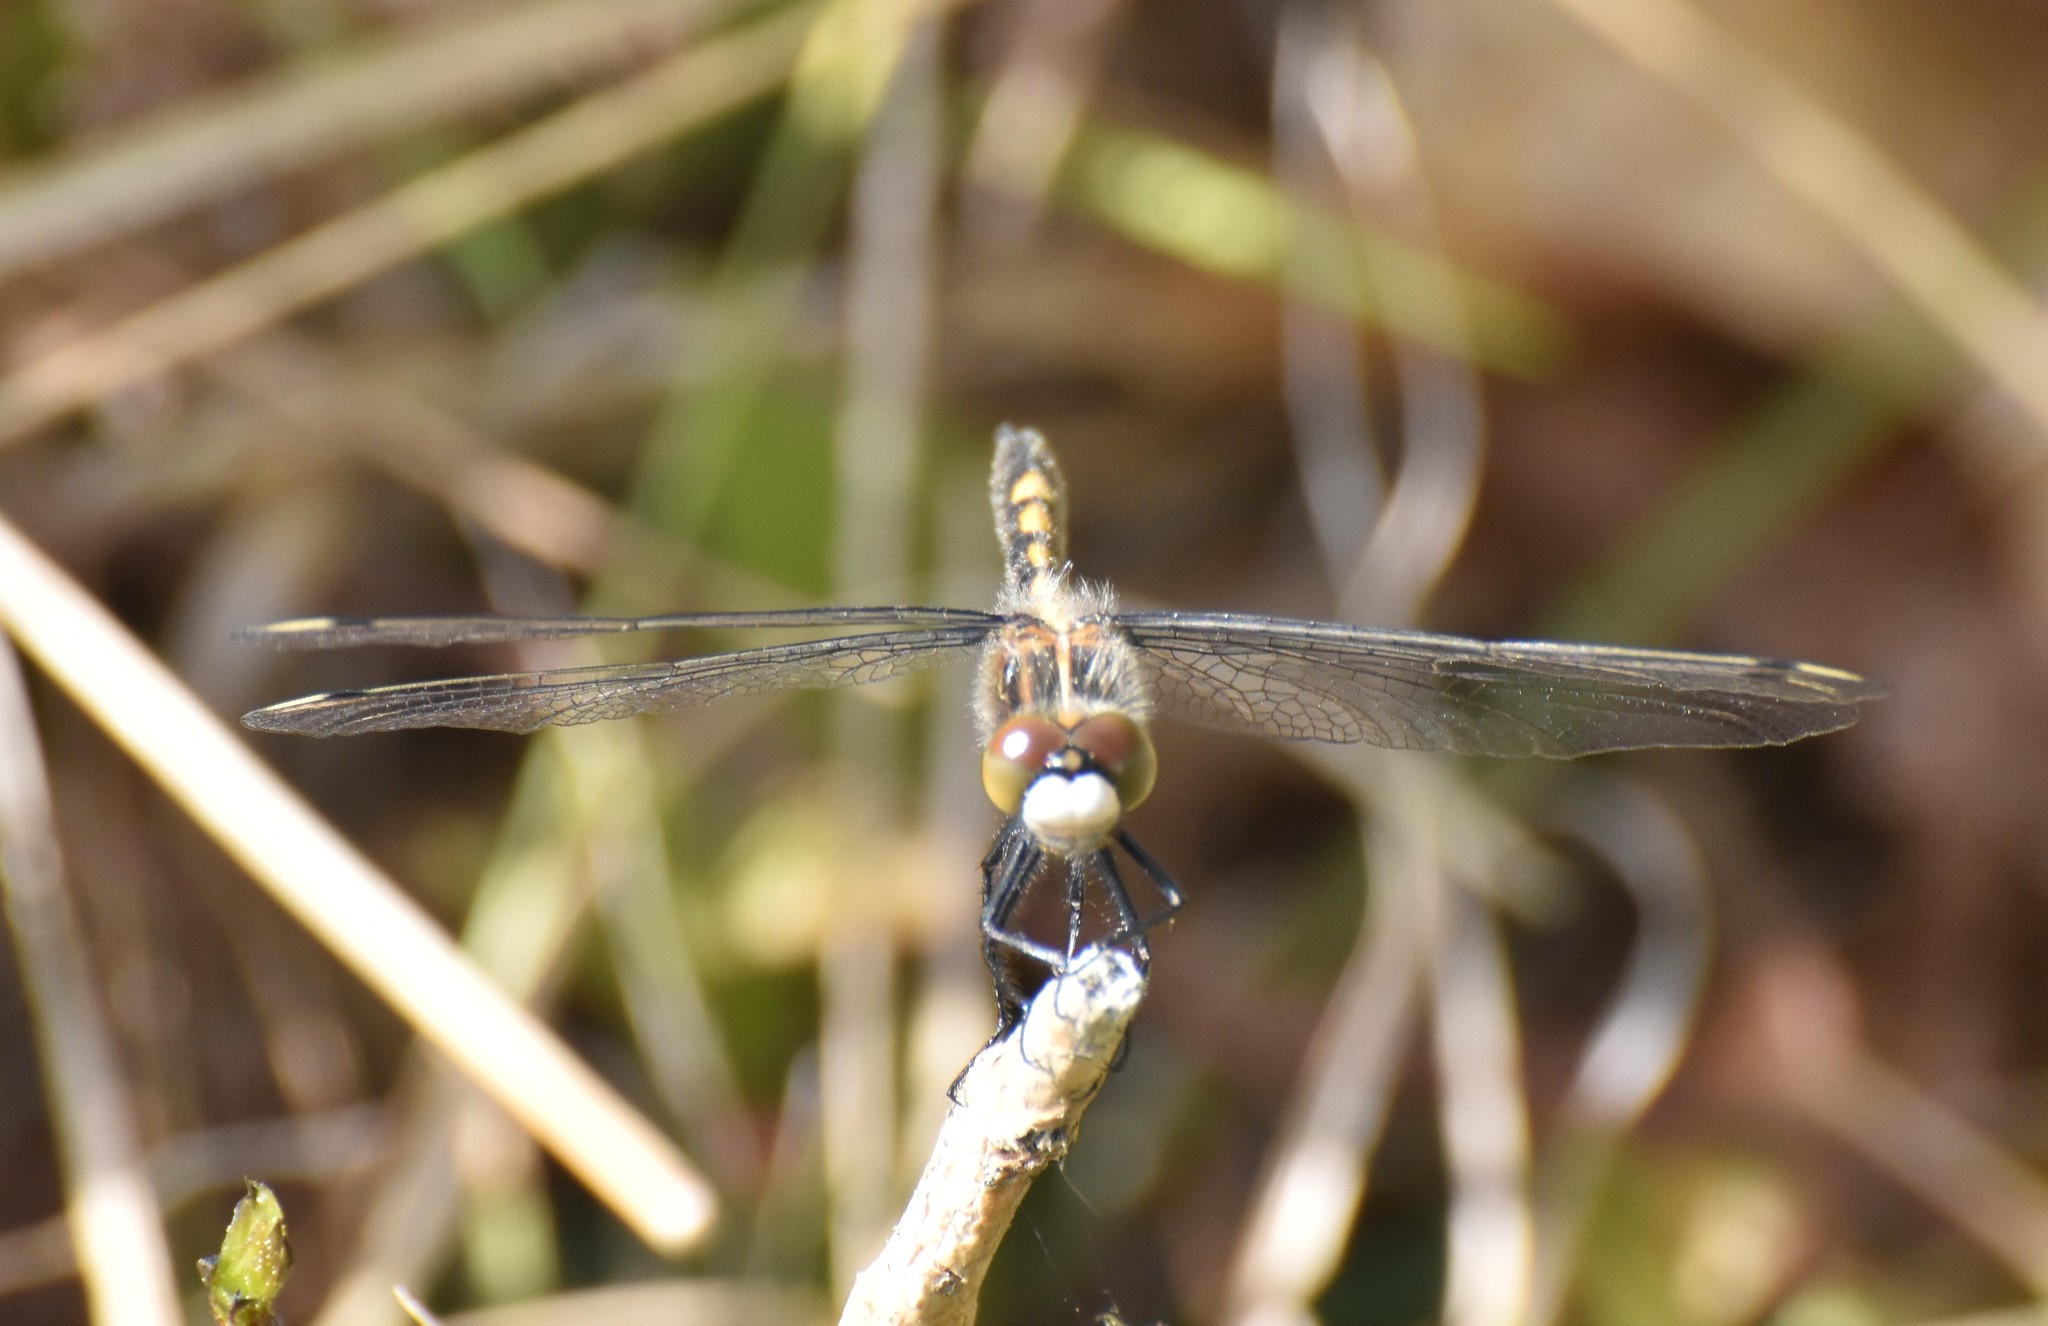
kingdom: Animalia
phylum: Arthropoda
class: Insecta
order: Odonata
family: Libellulidae
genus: Leucorrhinia
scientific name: Leucorrhinia intacta
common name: Dot-tailed whiteface
